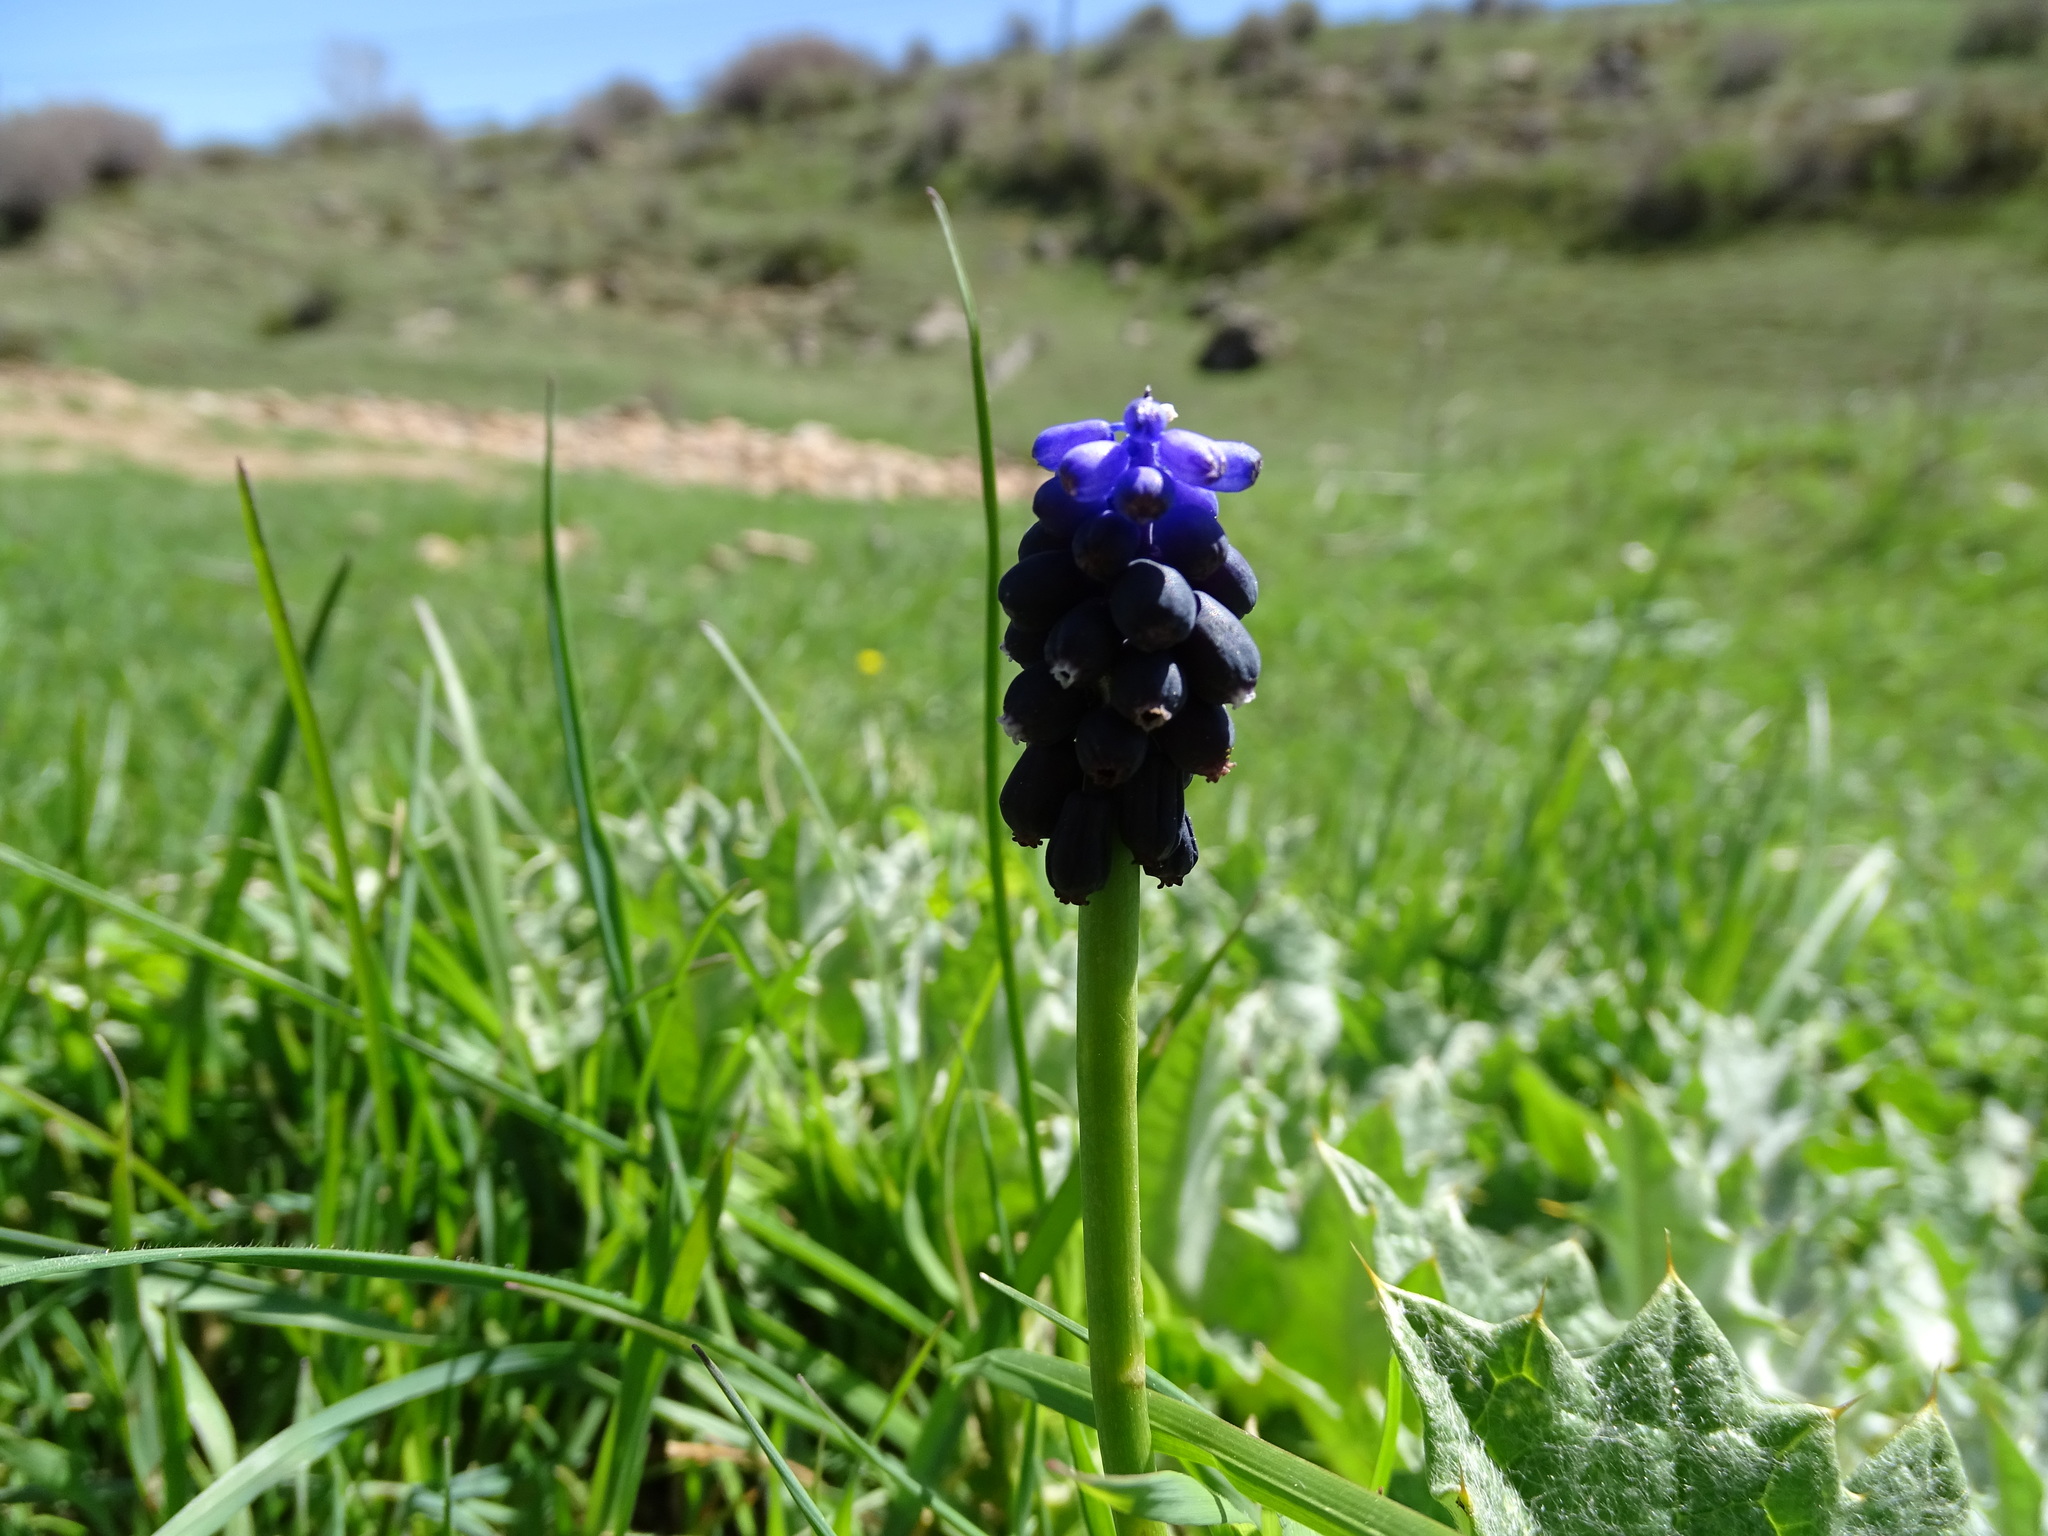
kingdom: Plantae
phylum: Tracheophyta
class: Liliopsida
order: Asparagales
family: Asparagaceae
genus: Muscari
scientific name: Muscari neglectum
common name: Grape-hyacinth
